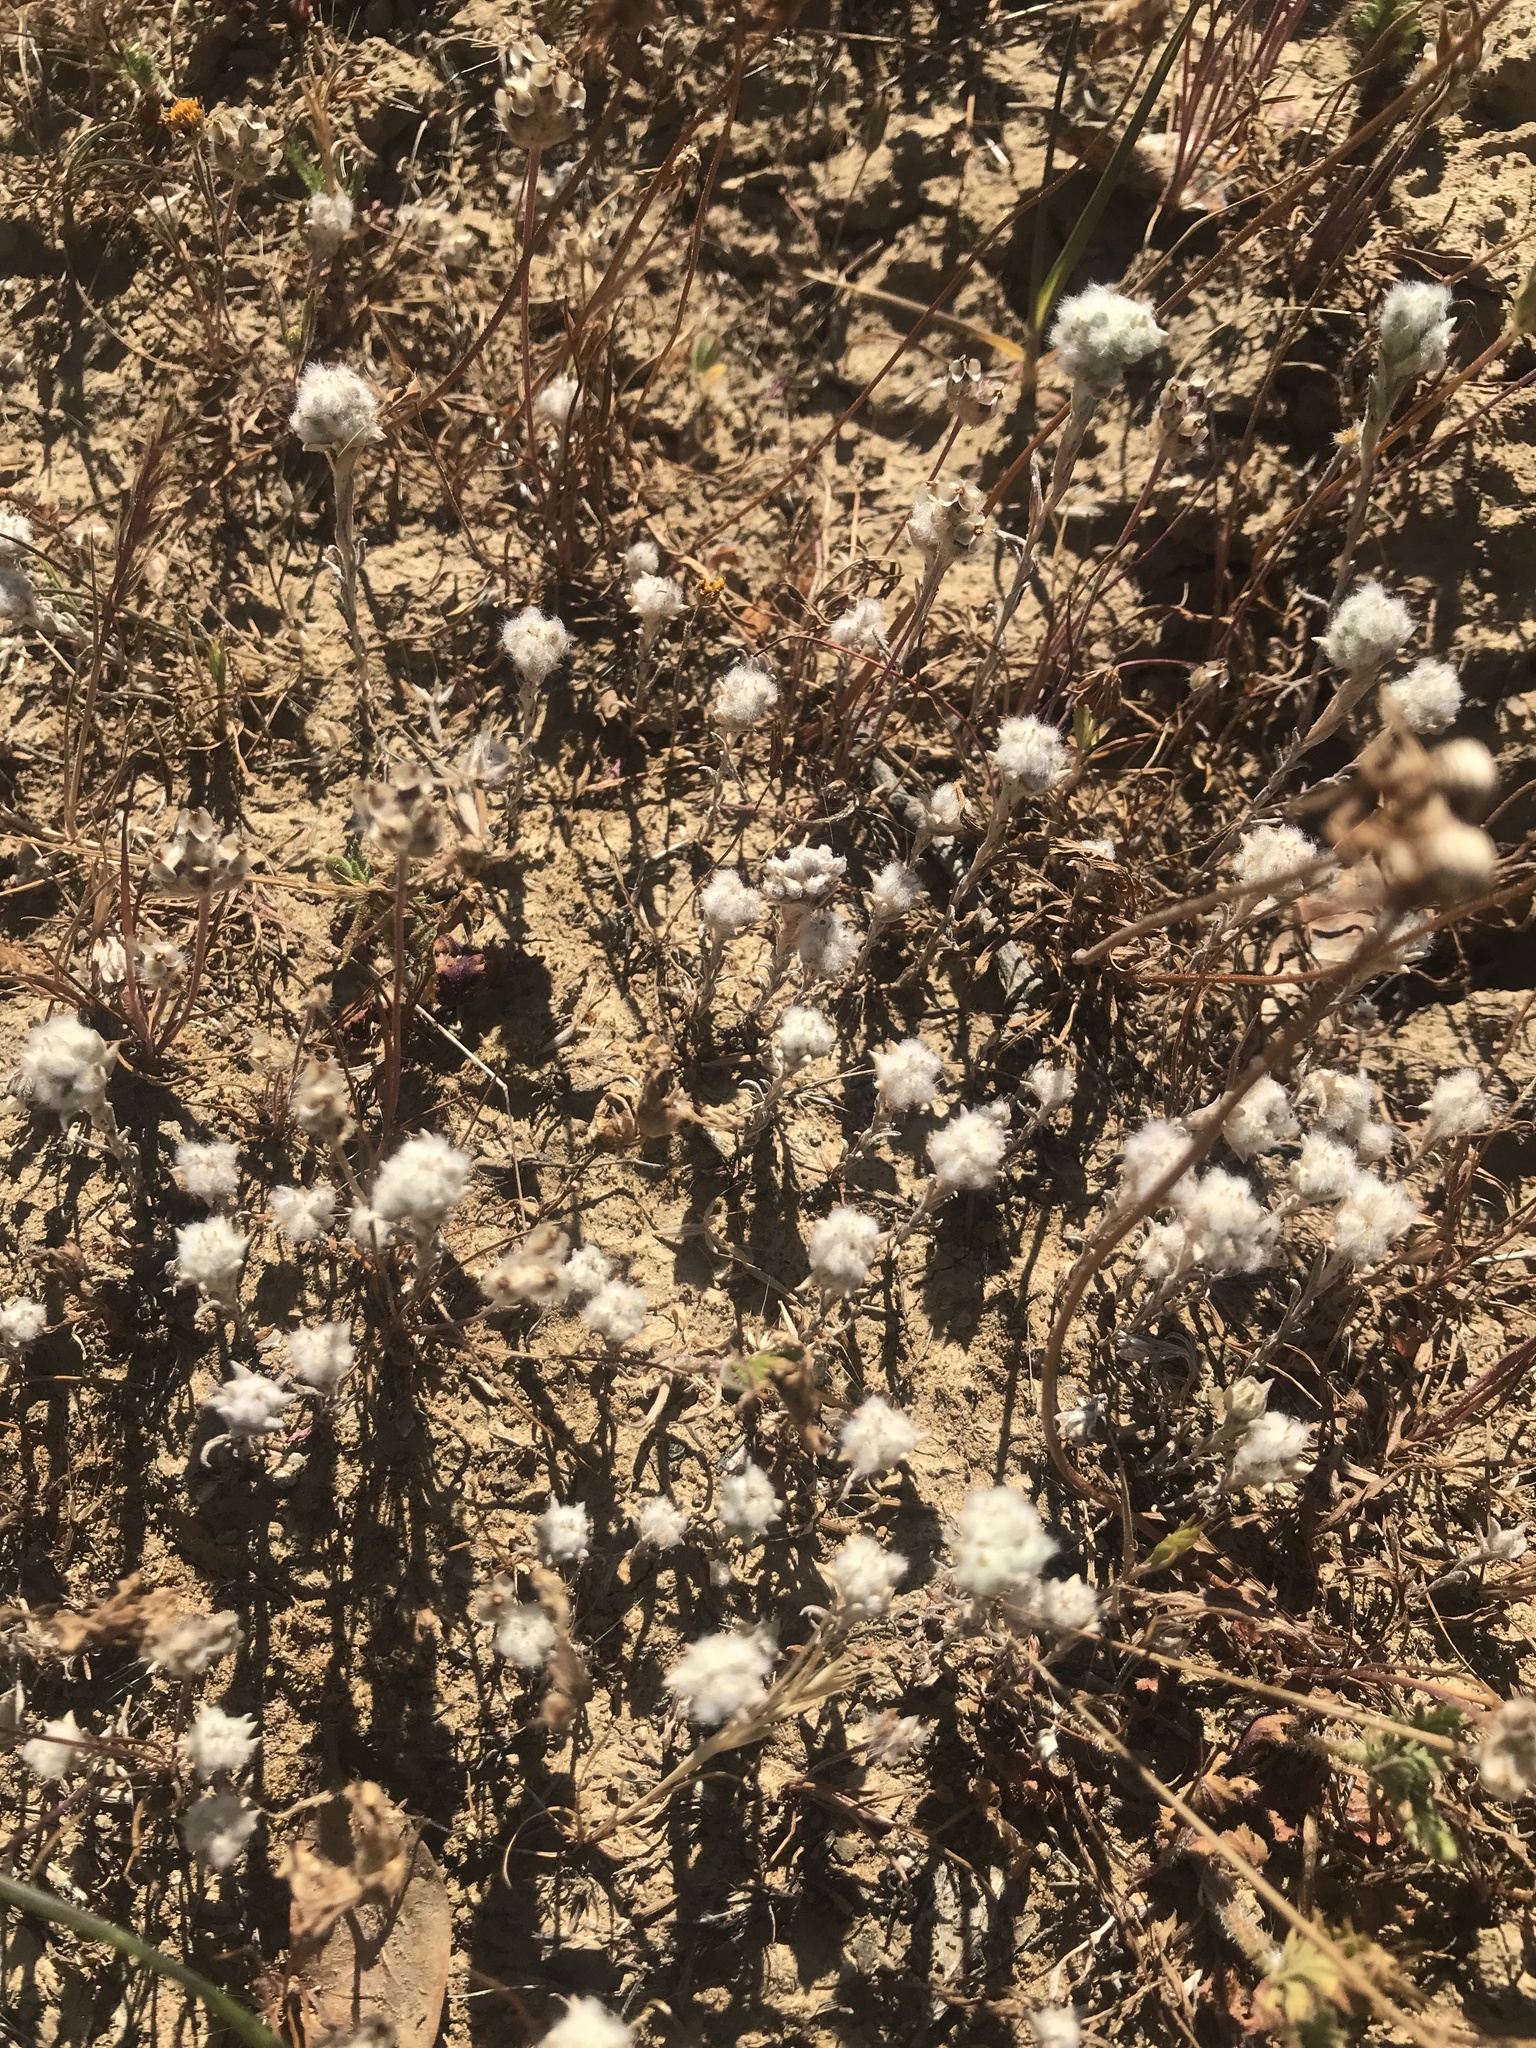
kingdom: Plantae
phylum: Tracheophyta
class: Magnoliopsida
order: Asterales
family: Asteraceae
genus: Bombycilaena
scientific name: Bombycilaena californica
